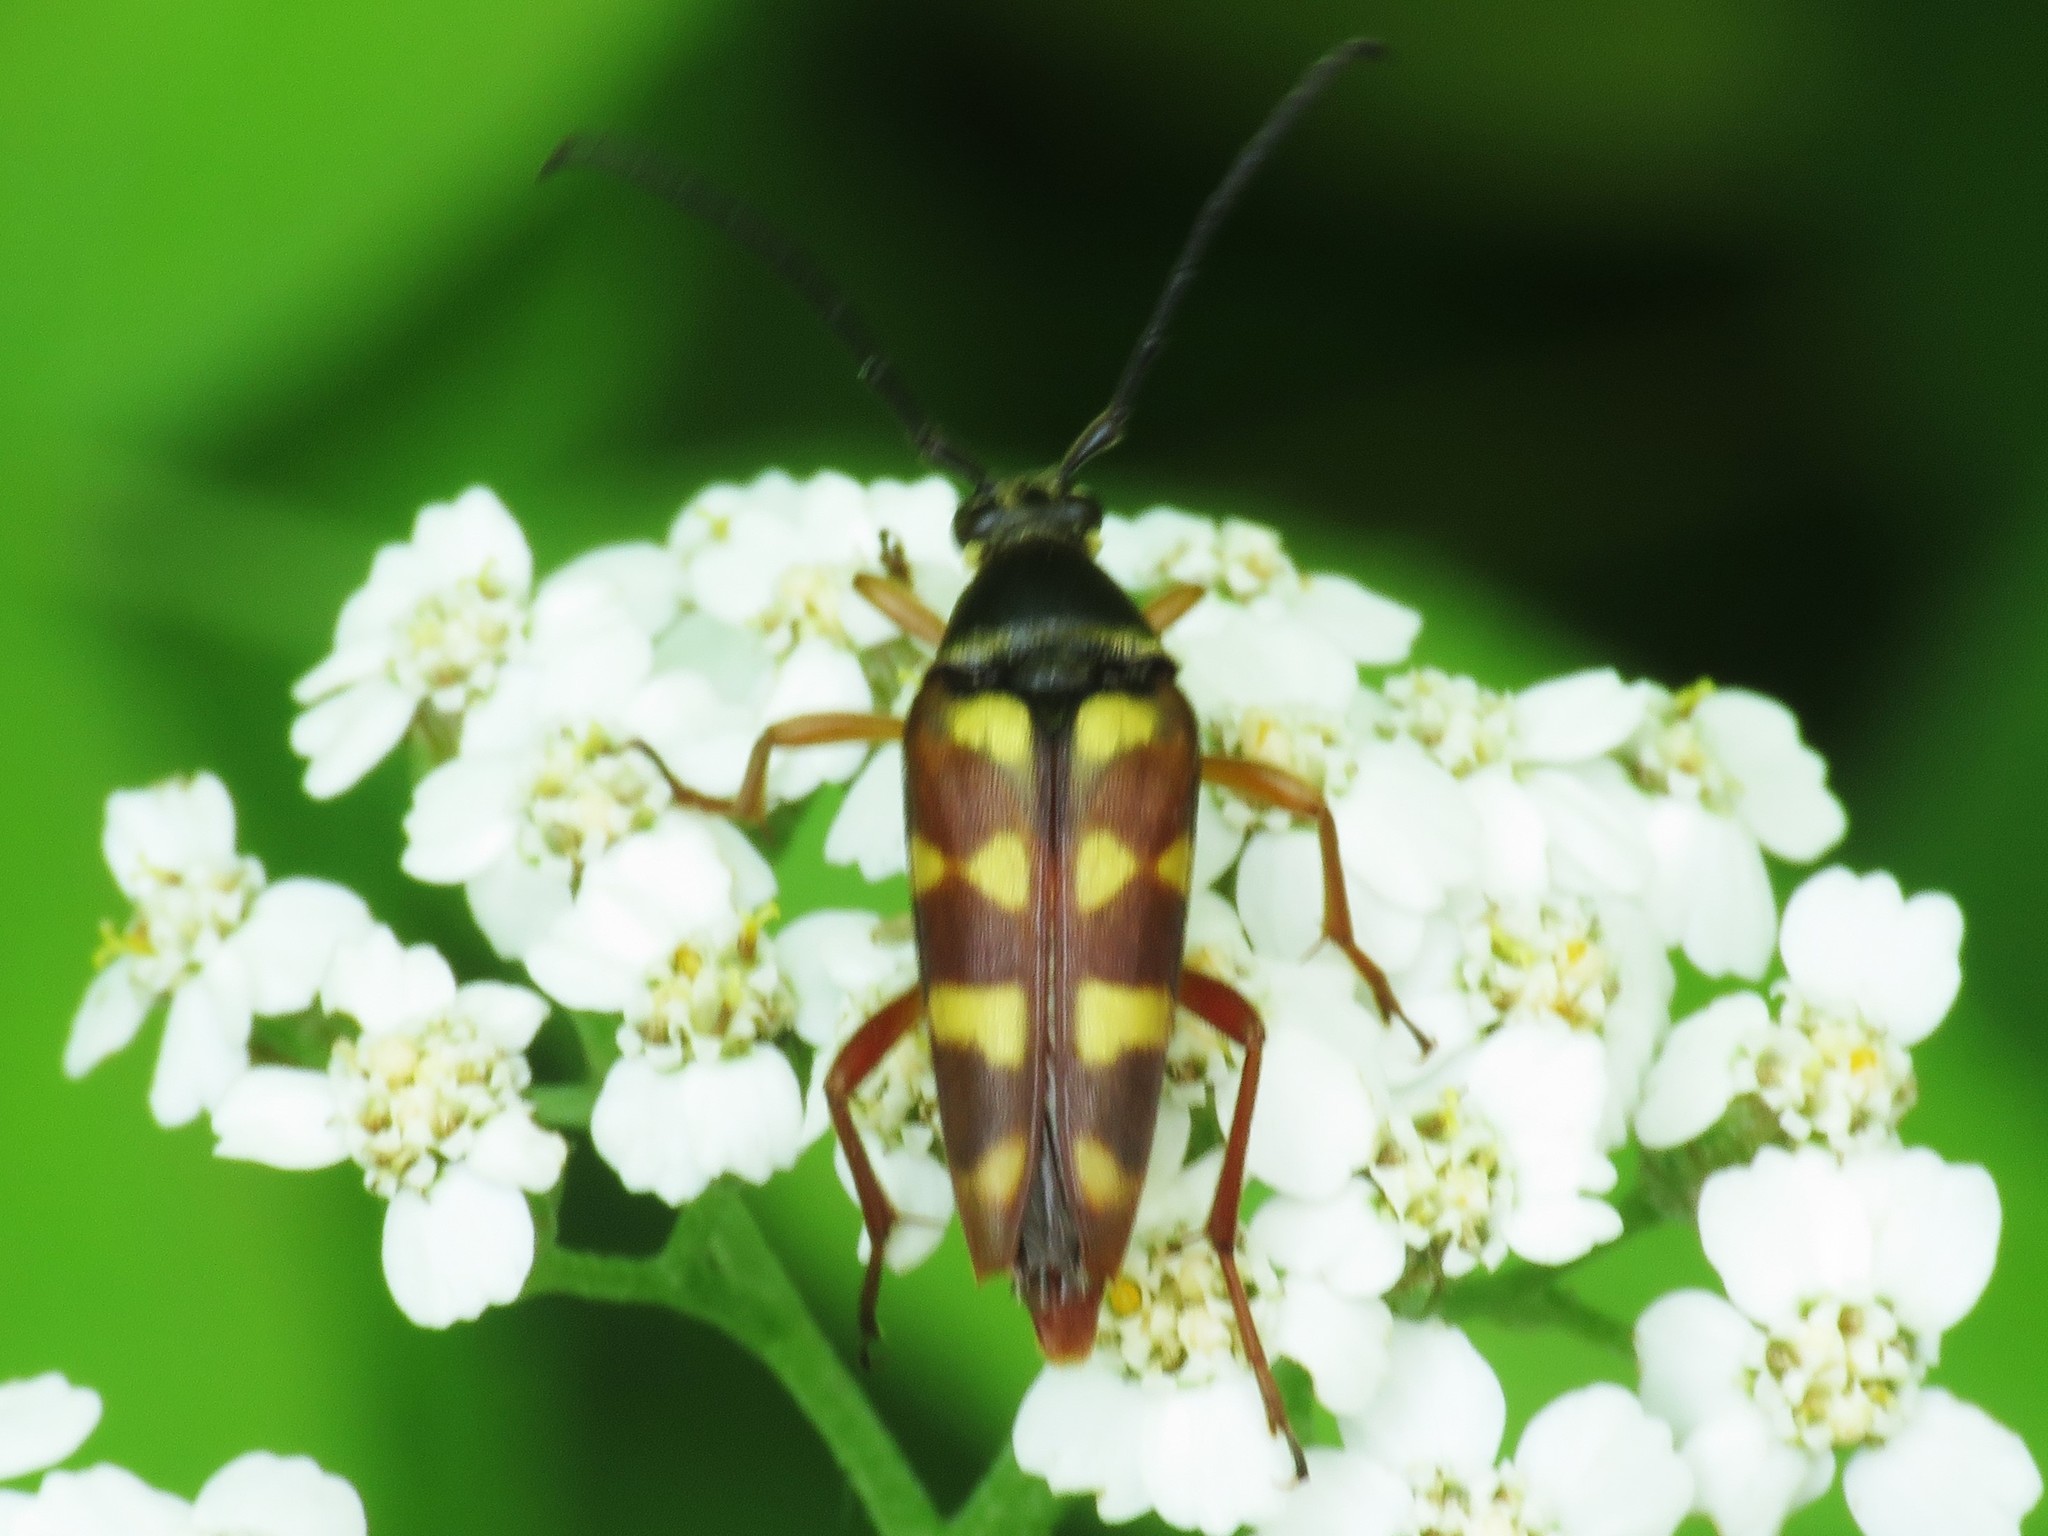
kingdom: Animalia
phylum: Arthropoda
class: Insecta
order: Coleoptera
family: Cerambycidae
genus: Typocerus
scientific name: Typocerus velutinus
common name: Banded longhorn beetle
